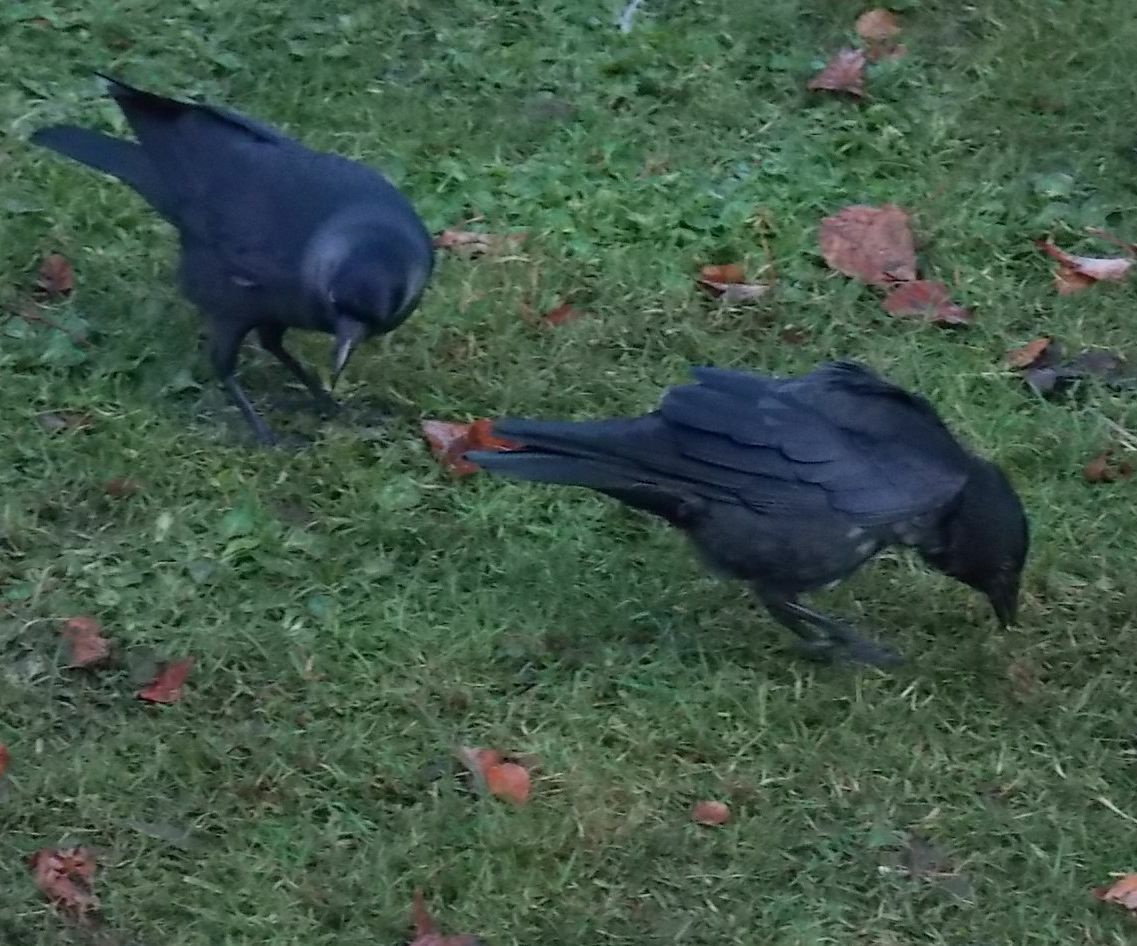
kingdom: Animalia
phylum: Chordata
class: Aves
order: Passeriformes
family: Corvidae
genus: Coloeus
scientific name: Coloeus monedula
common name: Western jackdaw
